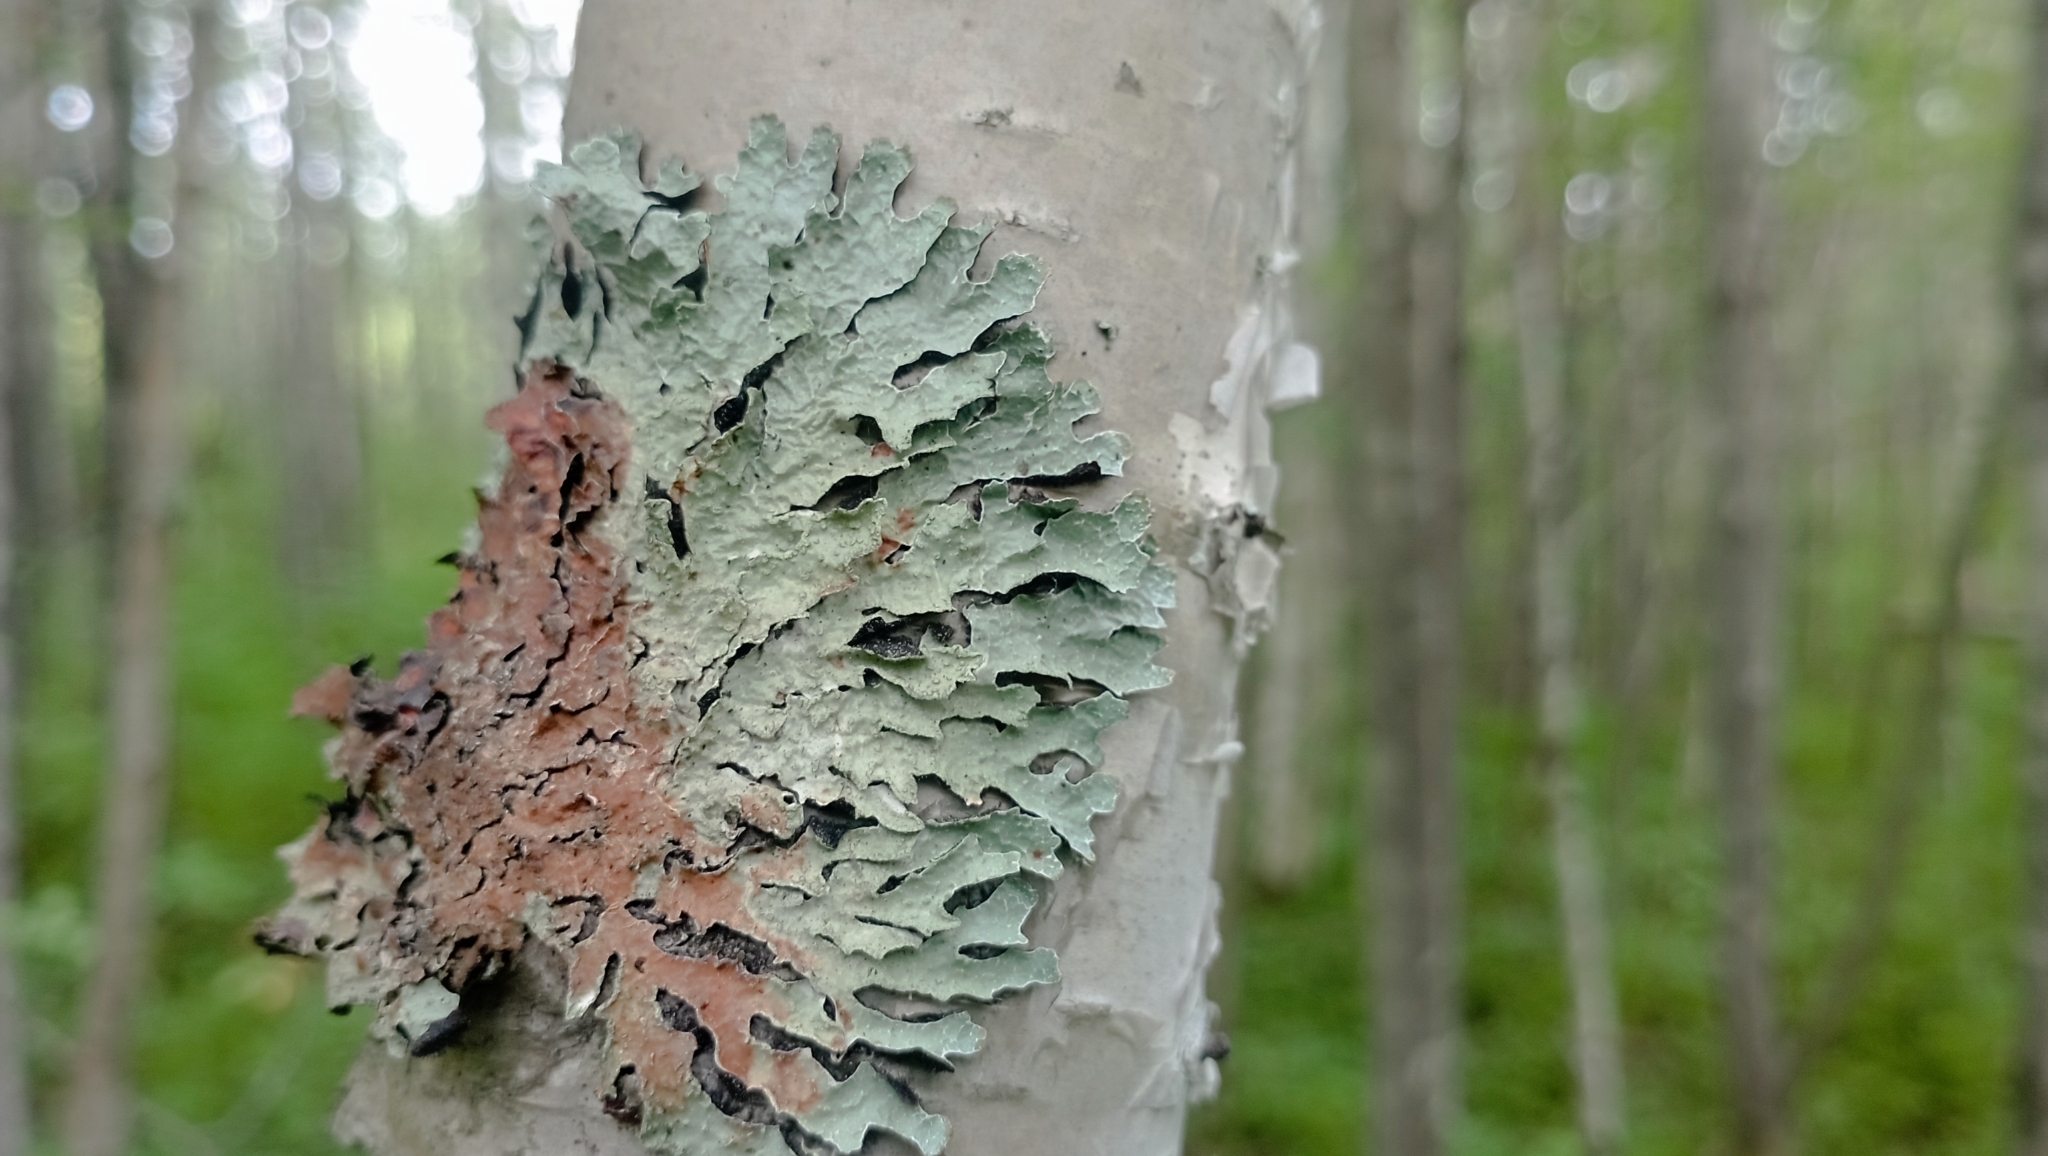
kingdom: Fungi
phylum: Ascomycota
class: Lecanoromycetes
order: Lecanorales
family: Parmeliaceae
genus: Parmelia
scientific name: Parmelia sulcata
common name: Netted shield lichen
